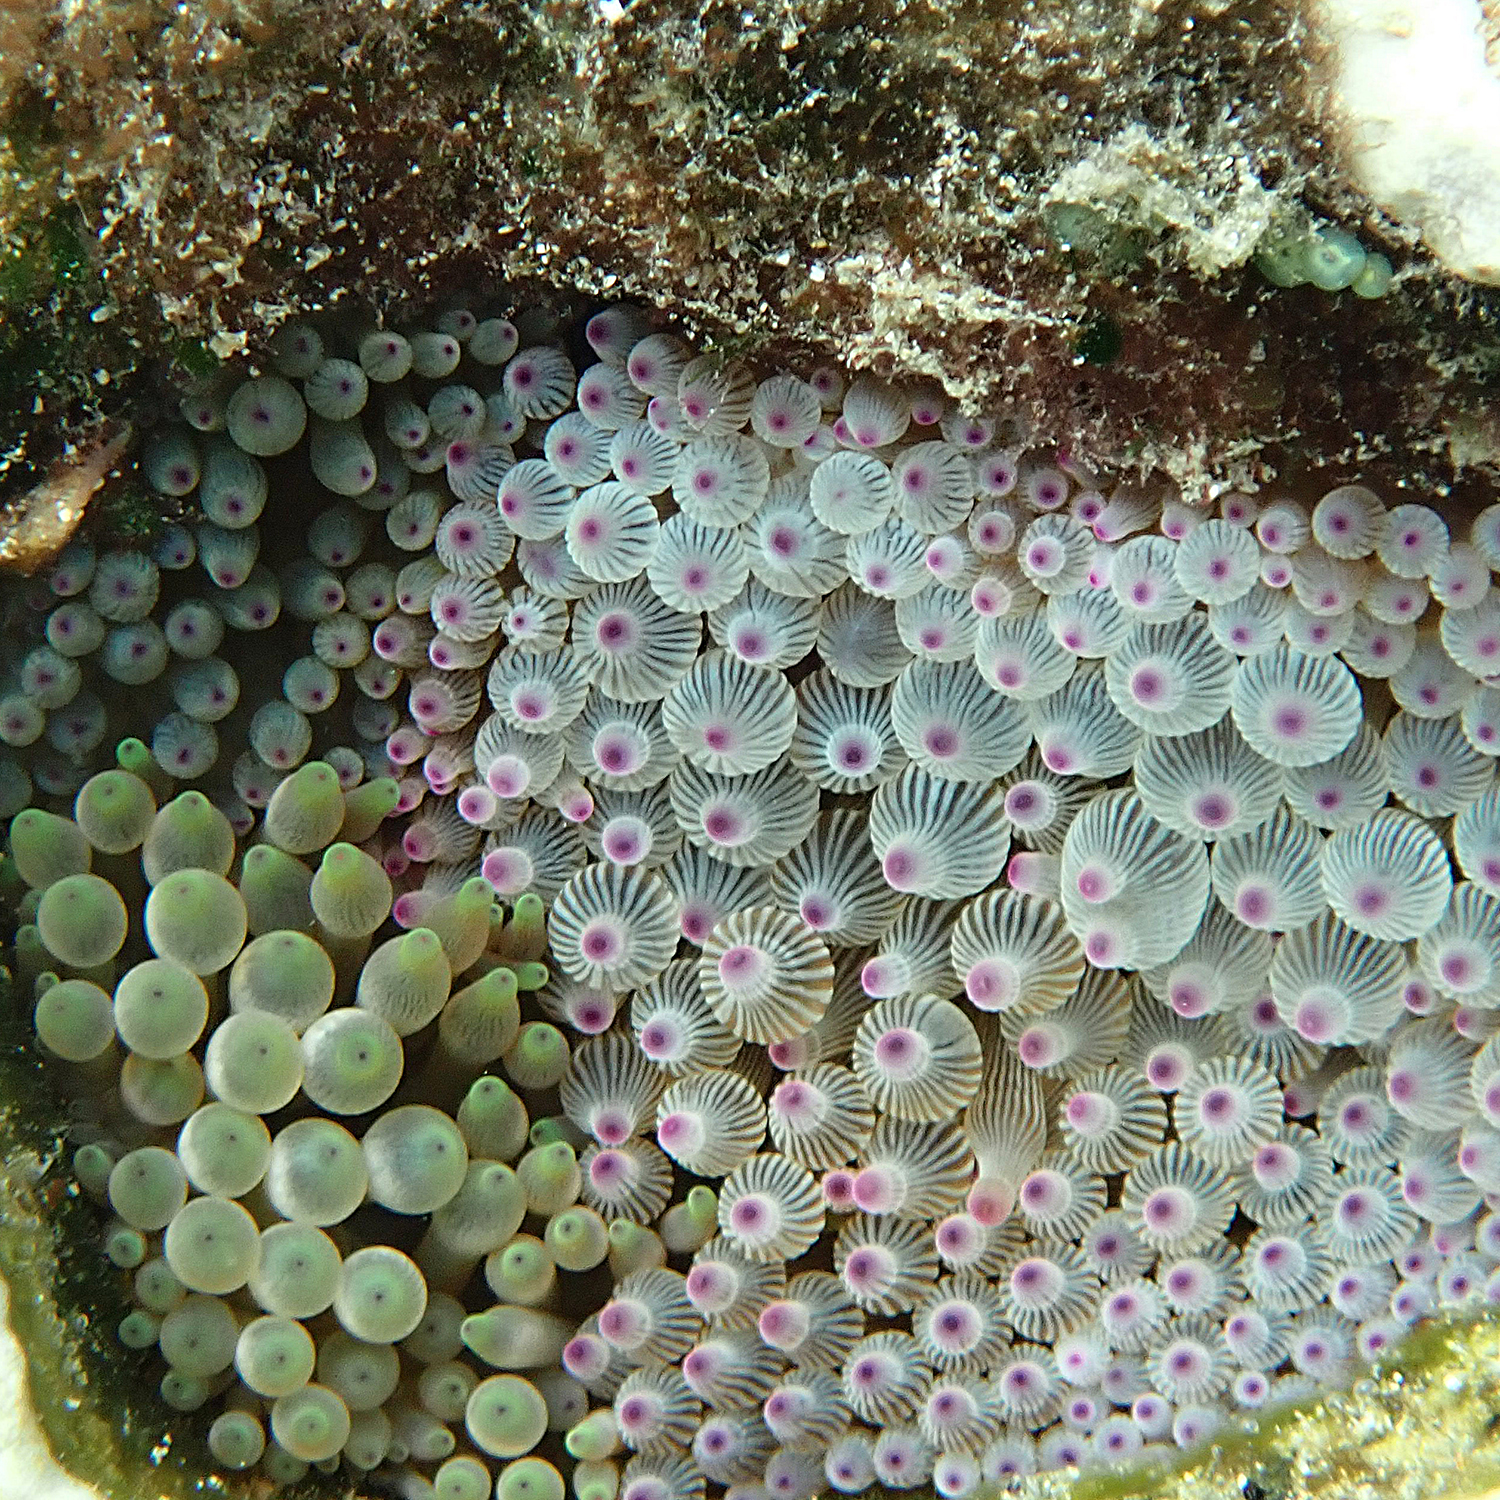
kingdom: Animalia
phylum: Cnidaria
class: Anthozoa
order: Actiniaria
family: Actiniidae
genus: Entacmaea
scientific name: Entacmaea quadricolor
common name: Bulb tentacle sea anemone
